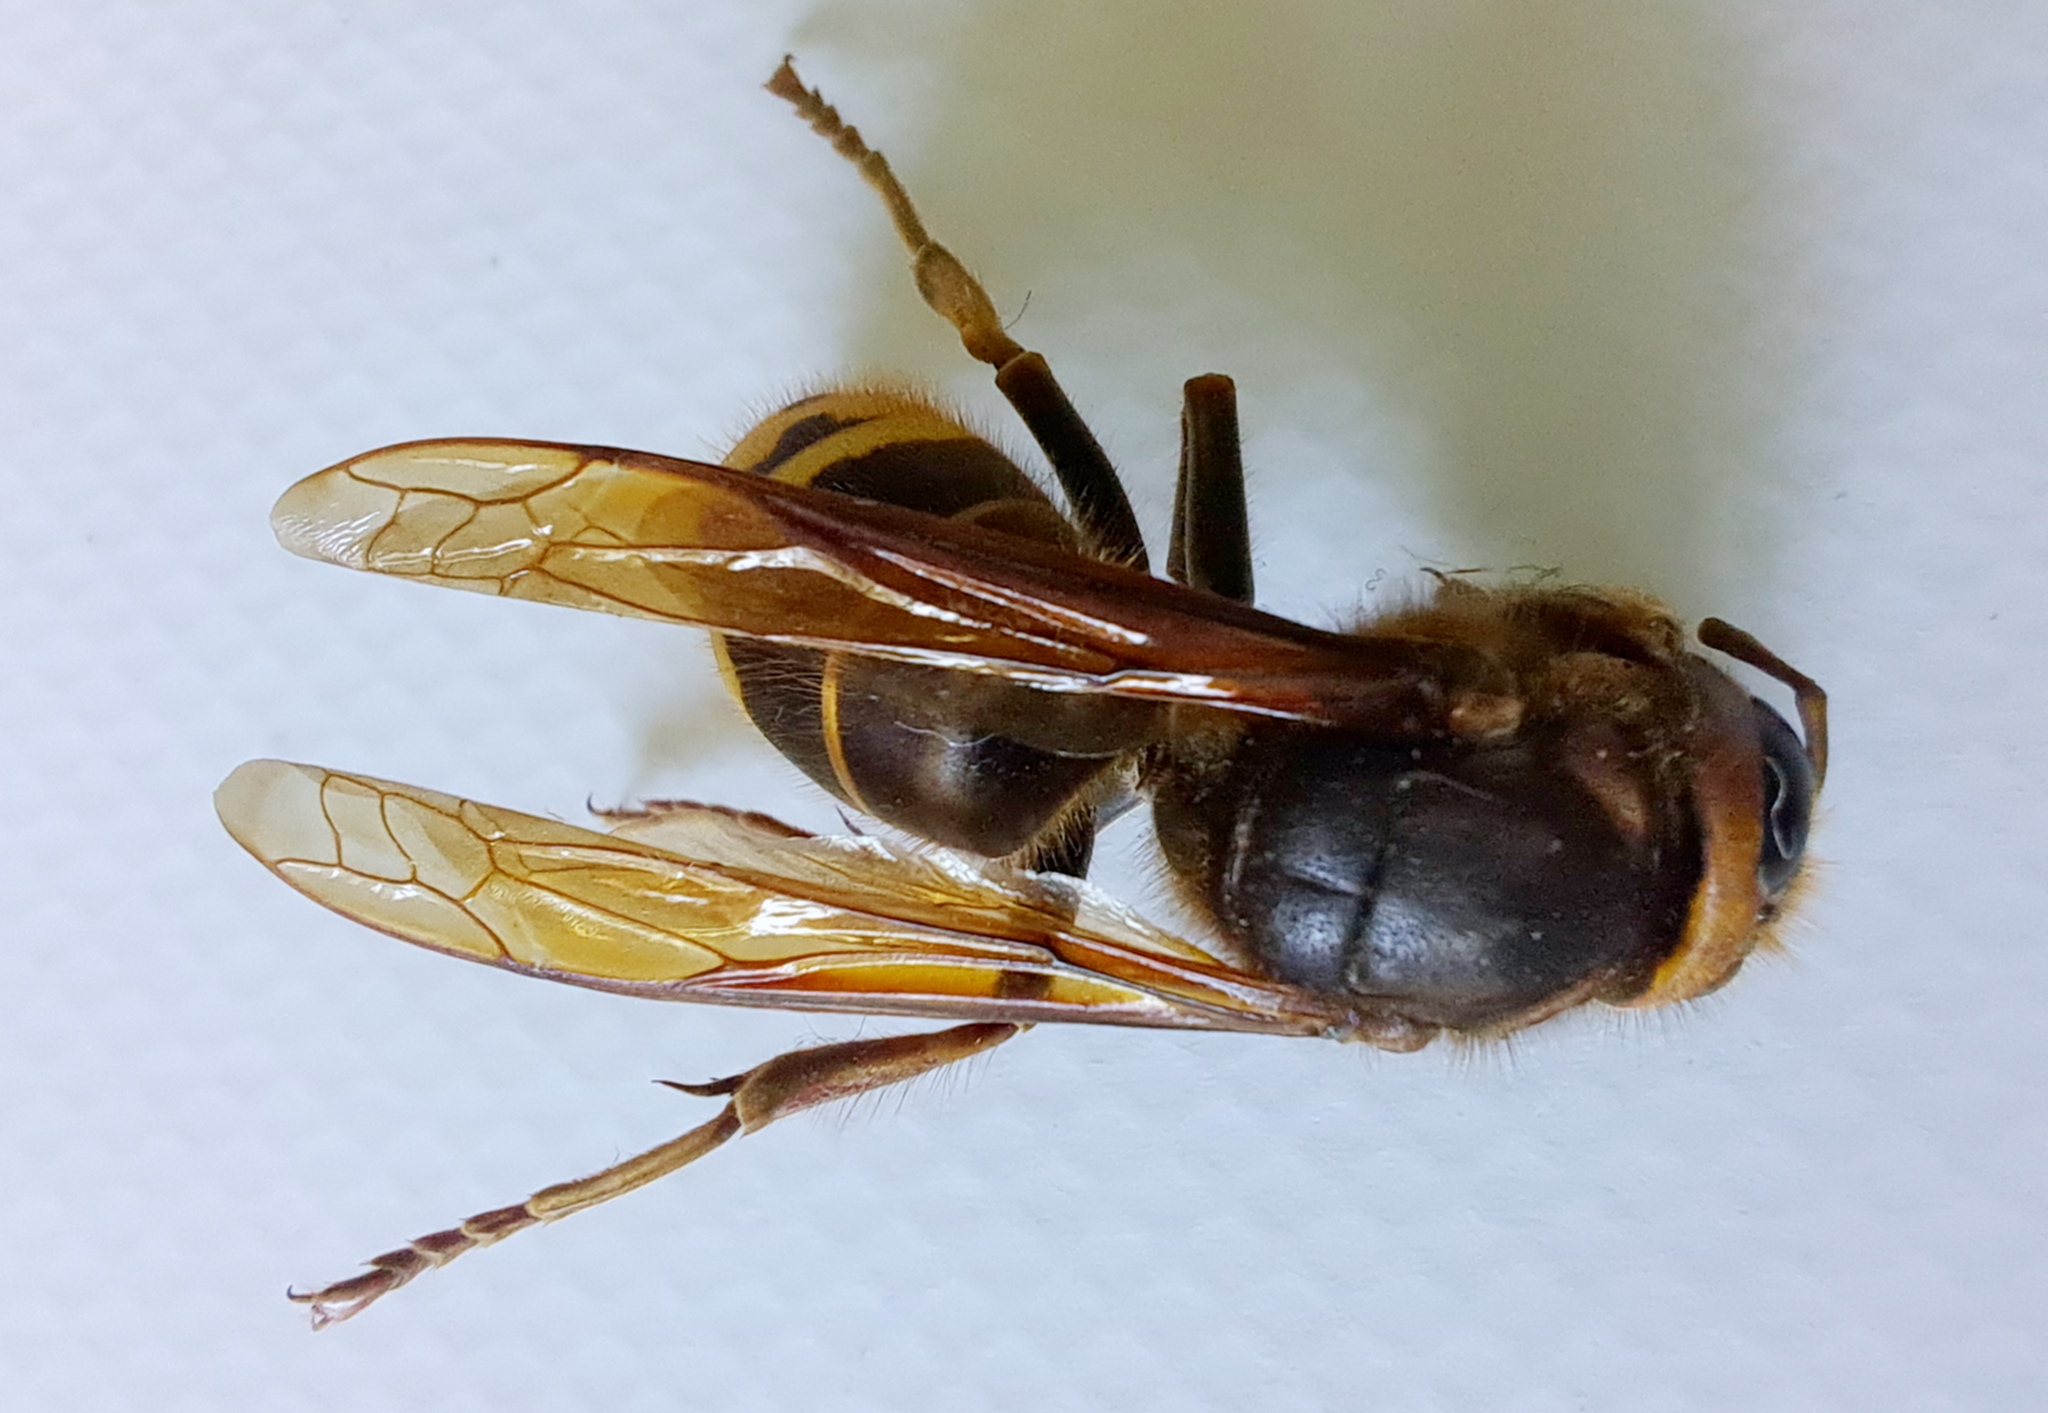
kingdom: Animalia
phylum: Arthropoda
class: Insecta
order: Hymenoptera
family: Vespidae
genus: Vespa
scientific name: Vespa crabro
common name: Hornet
